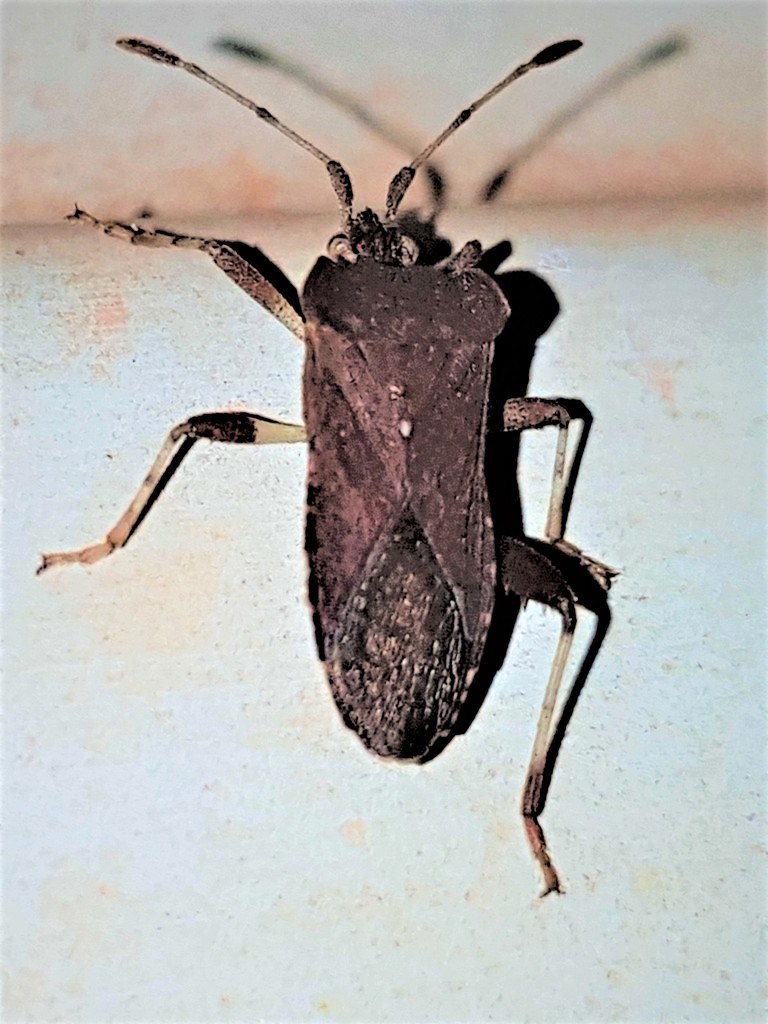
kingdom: Animalia
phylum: Arthropoda
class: Insecta
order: Hemiptera
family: Coreidae
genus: Dalmatomammurius
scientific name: Dalmatomammurius vegetus
